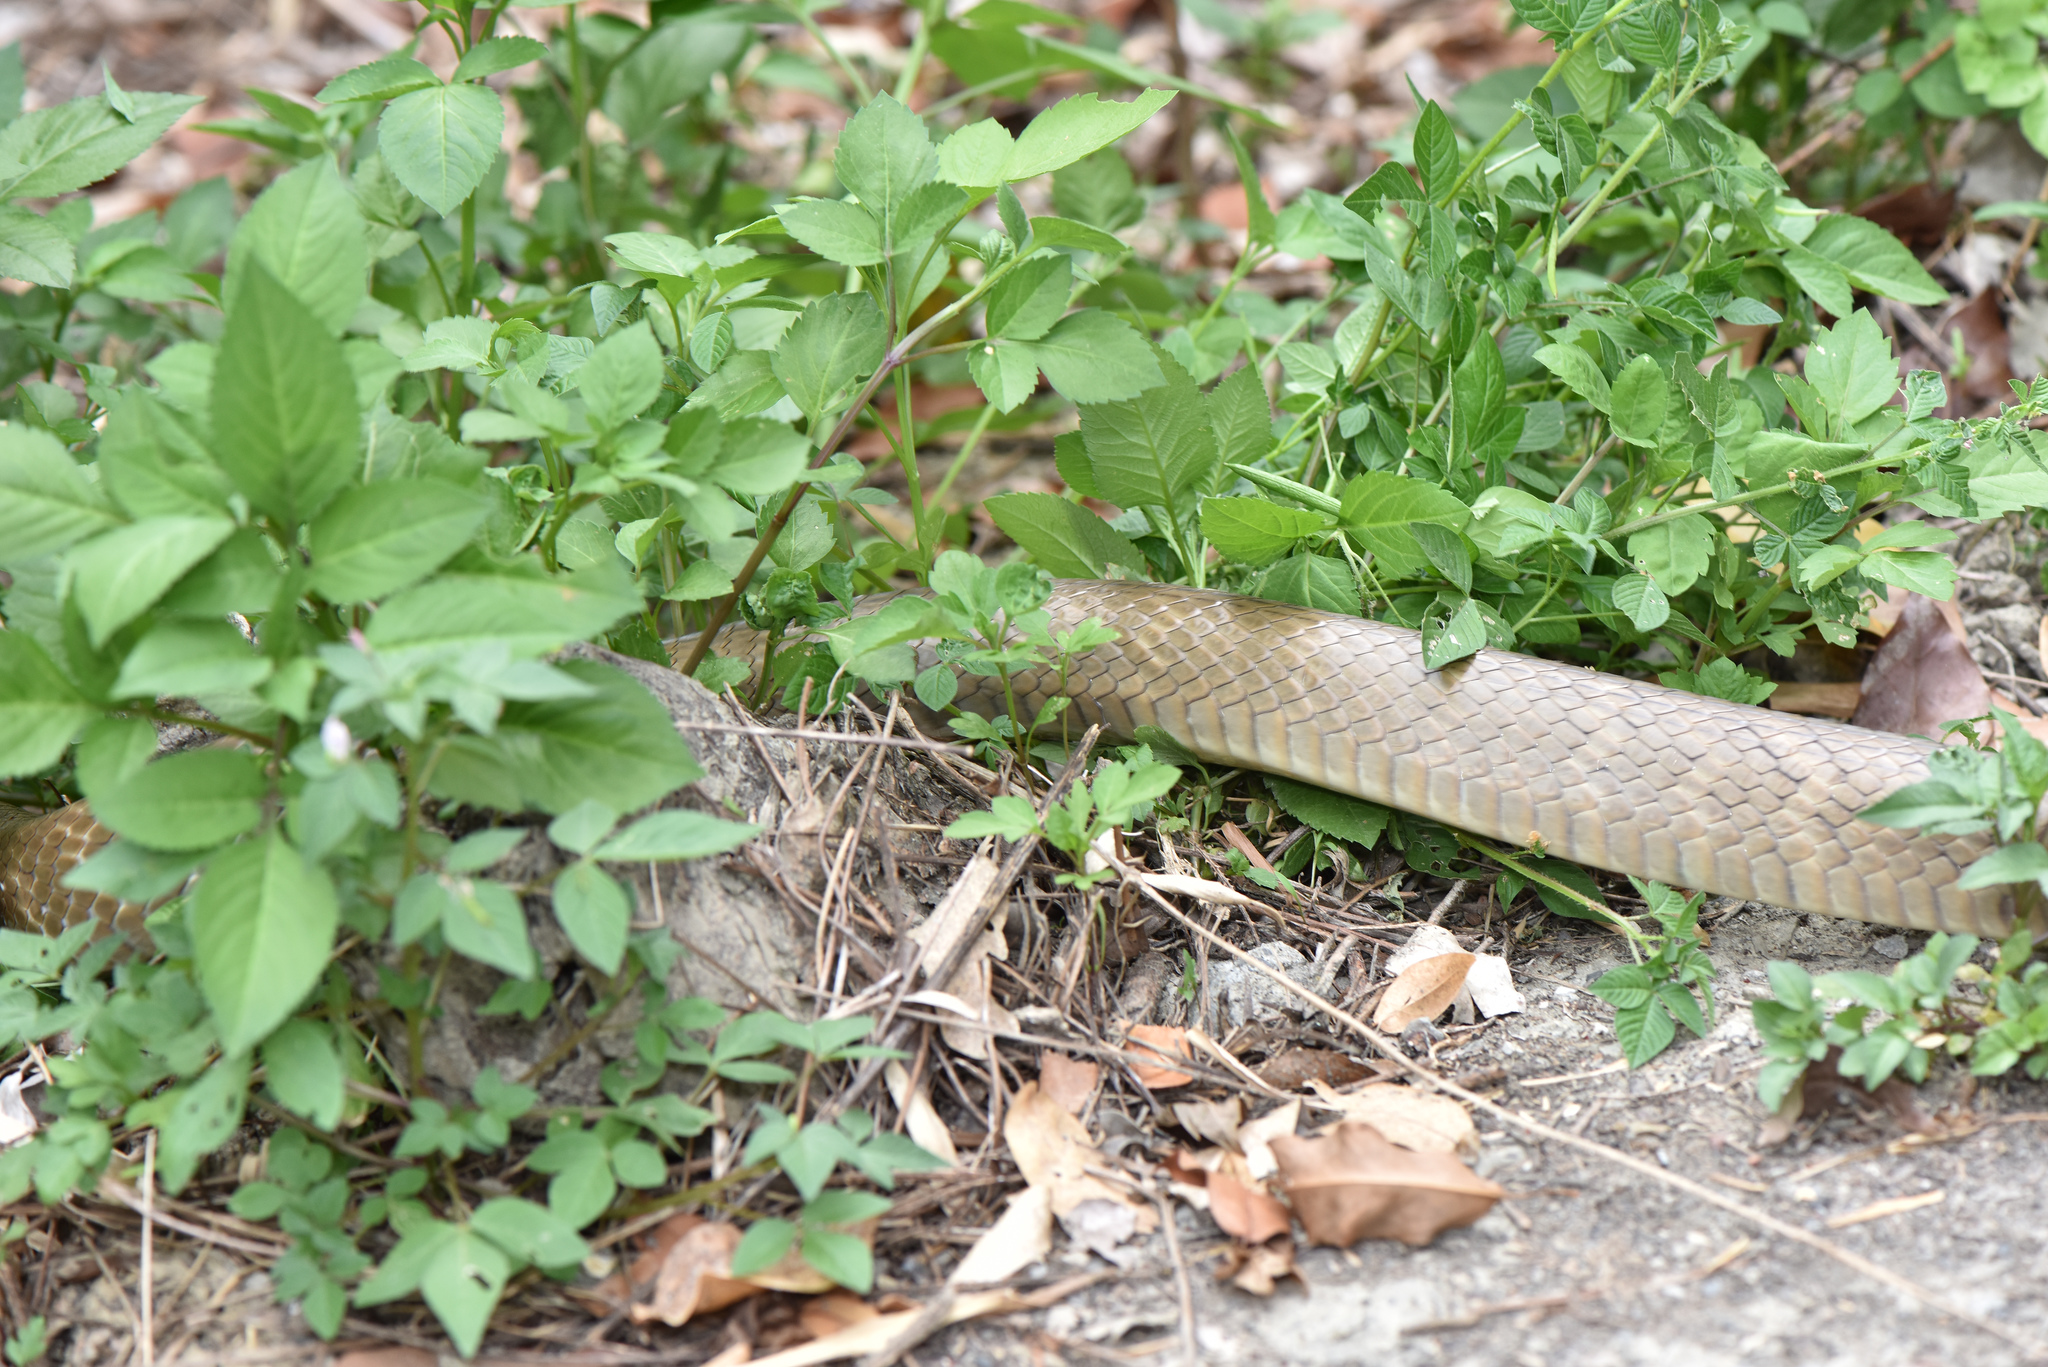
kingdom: Animalia
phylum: Chordata
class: Squamata
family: Colubridae
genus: Ptyas
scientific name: Ptyas mucosa
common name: Oriental ratsnake
